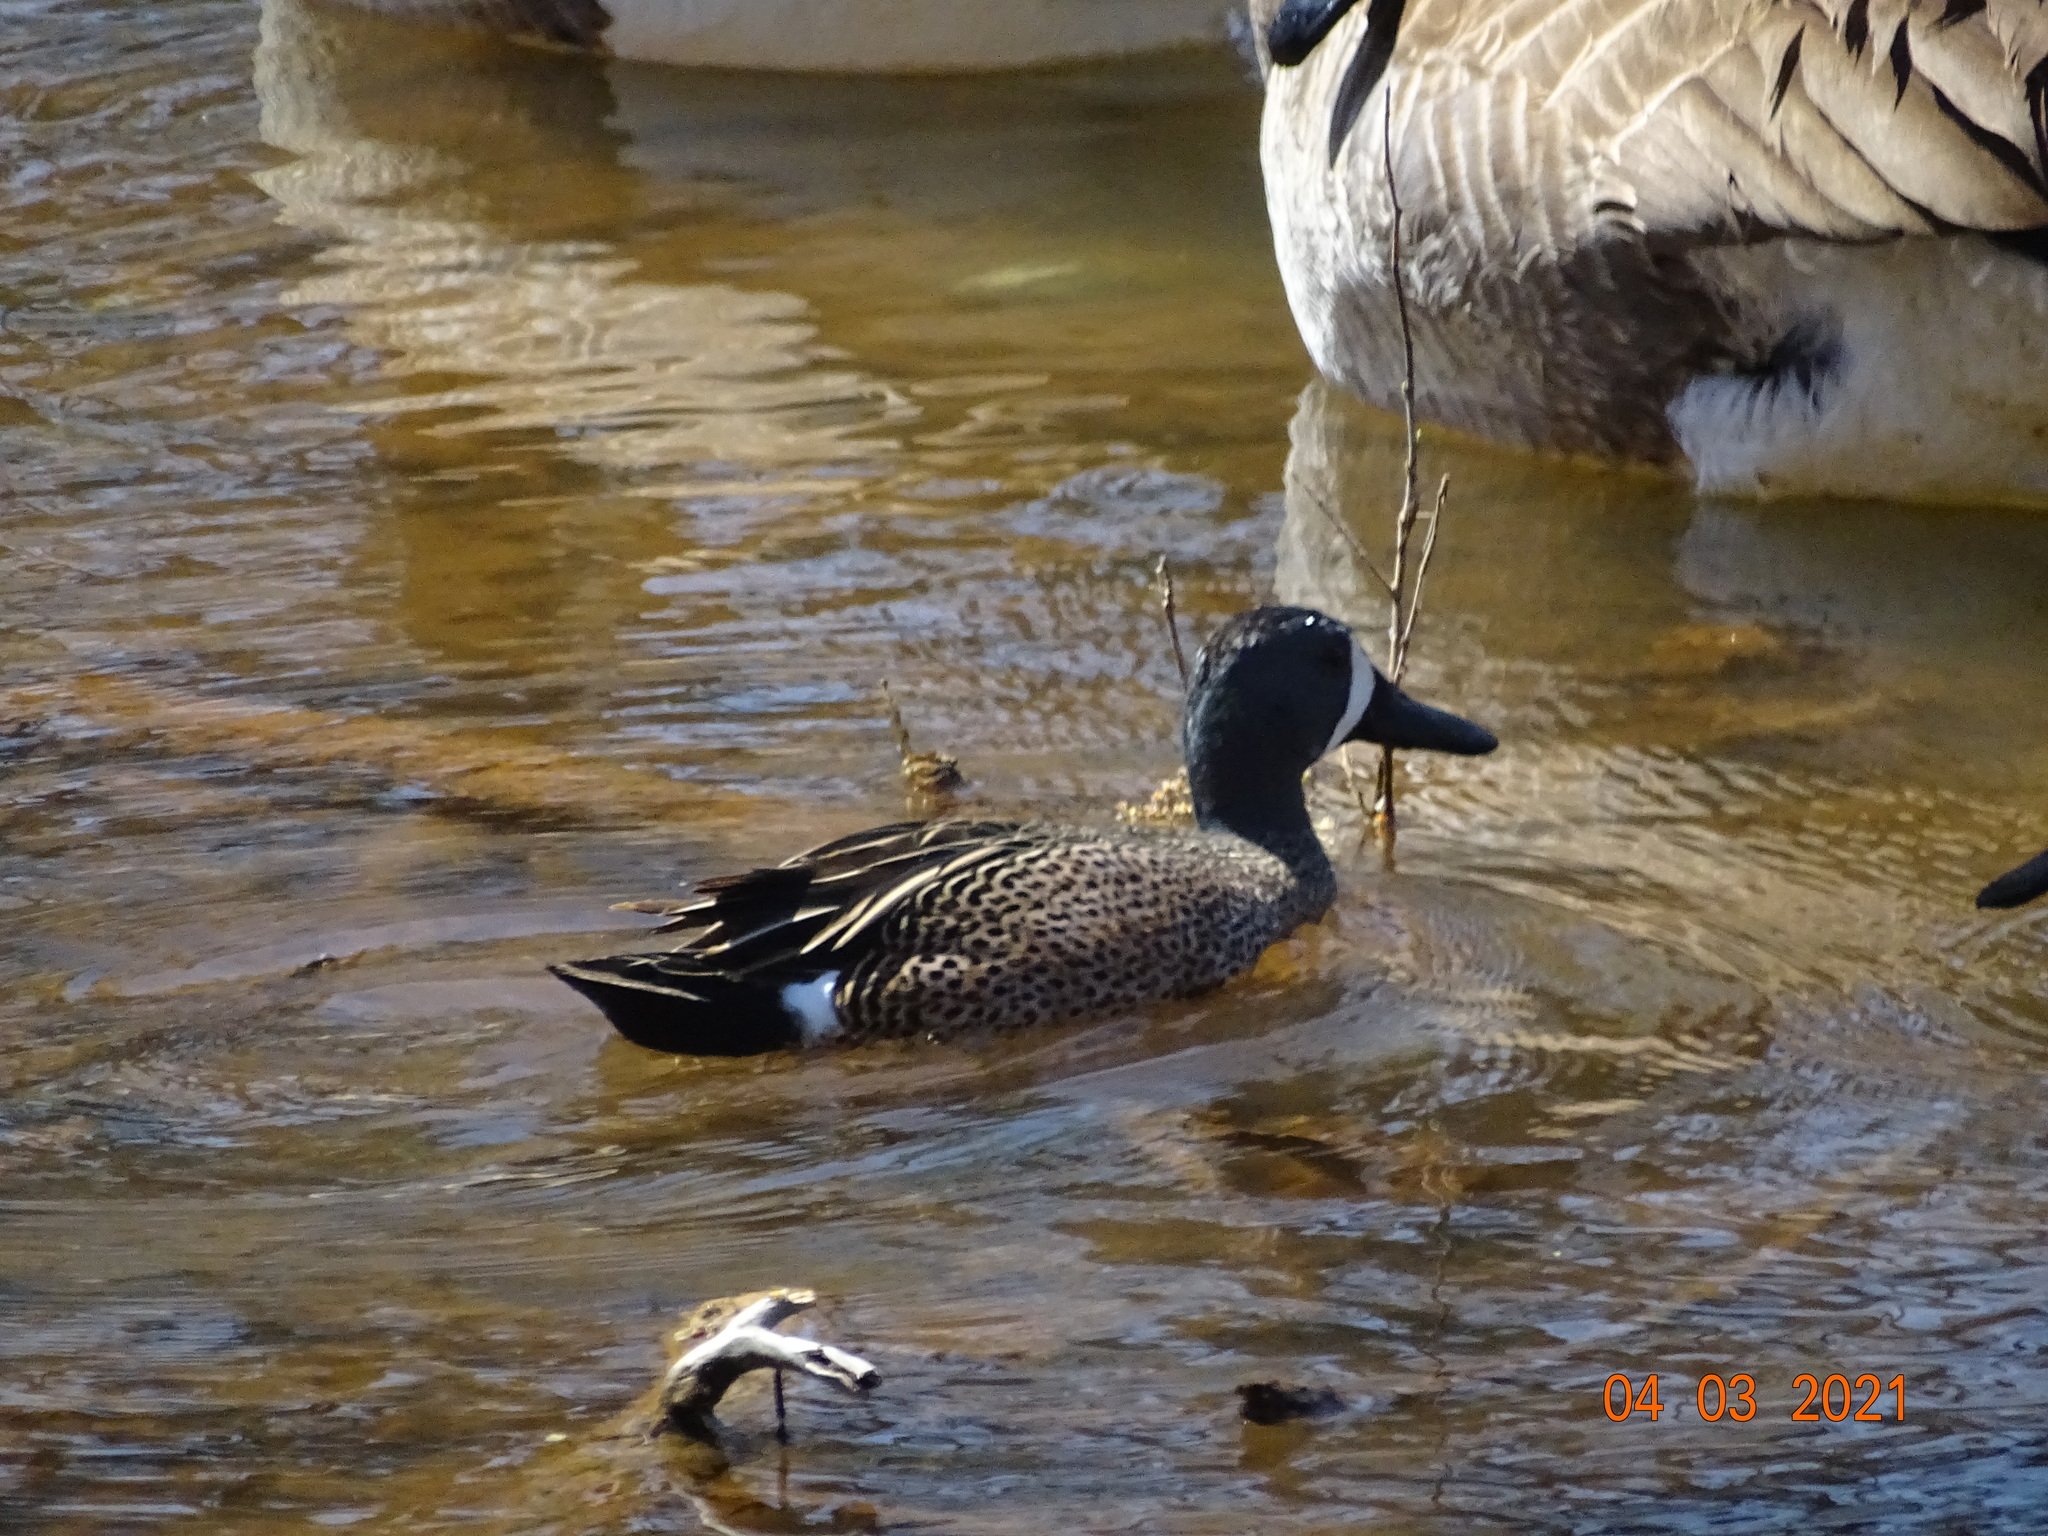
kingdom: Animalia
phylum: Chordata
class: Aves
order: Anseriformes
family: Anatidae
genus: Spatula
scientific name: Spatula discors
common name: Blue-winged teal
